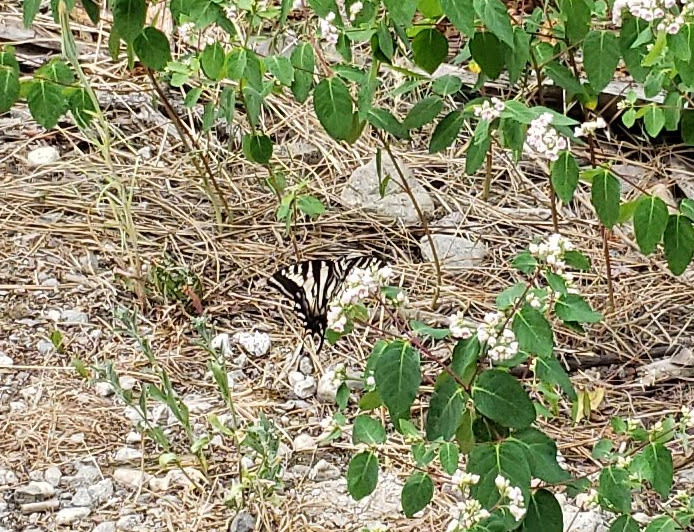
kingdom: Animalia
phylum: Arthropoda
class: Insecta
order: Lepidoptera
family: Papilionidae
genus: Papilio
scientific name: Papilio eurymedon
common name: Pale tiger swallowtail
